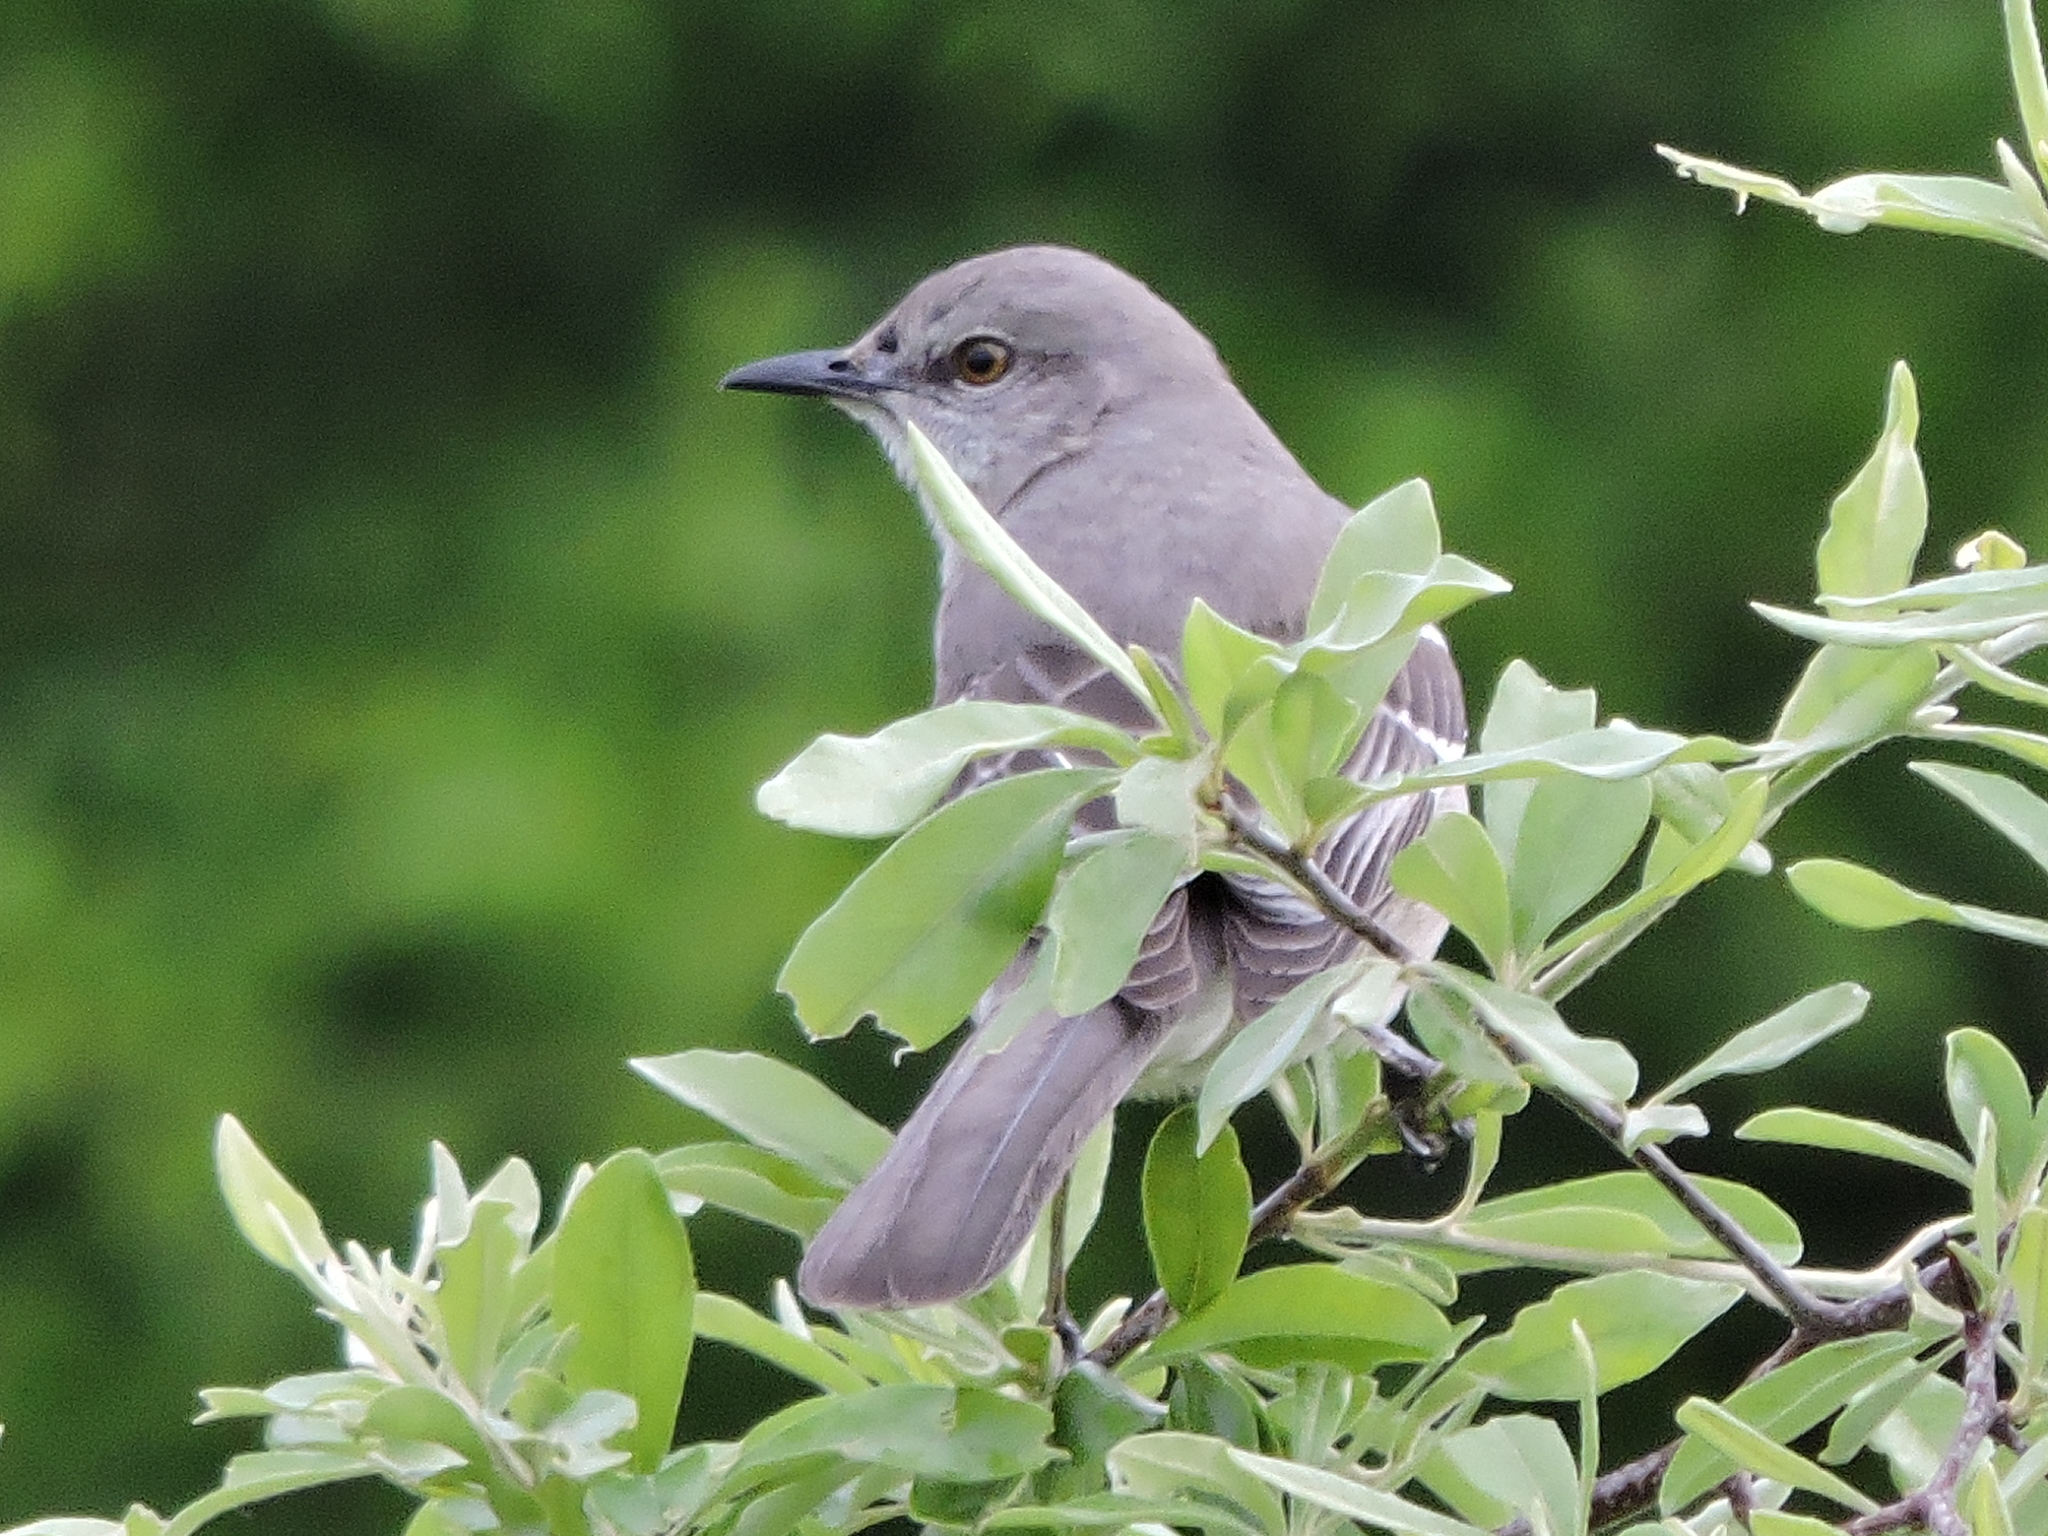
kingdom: Animalia
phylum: Chordata
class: Aves
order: Passeriformes
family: Mimidae
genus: Mimus
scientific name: Mimus polyglottos
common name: Northern mockingbird
